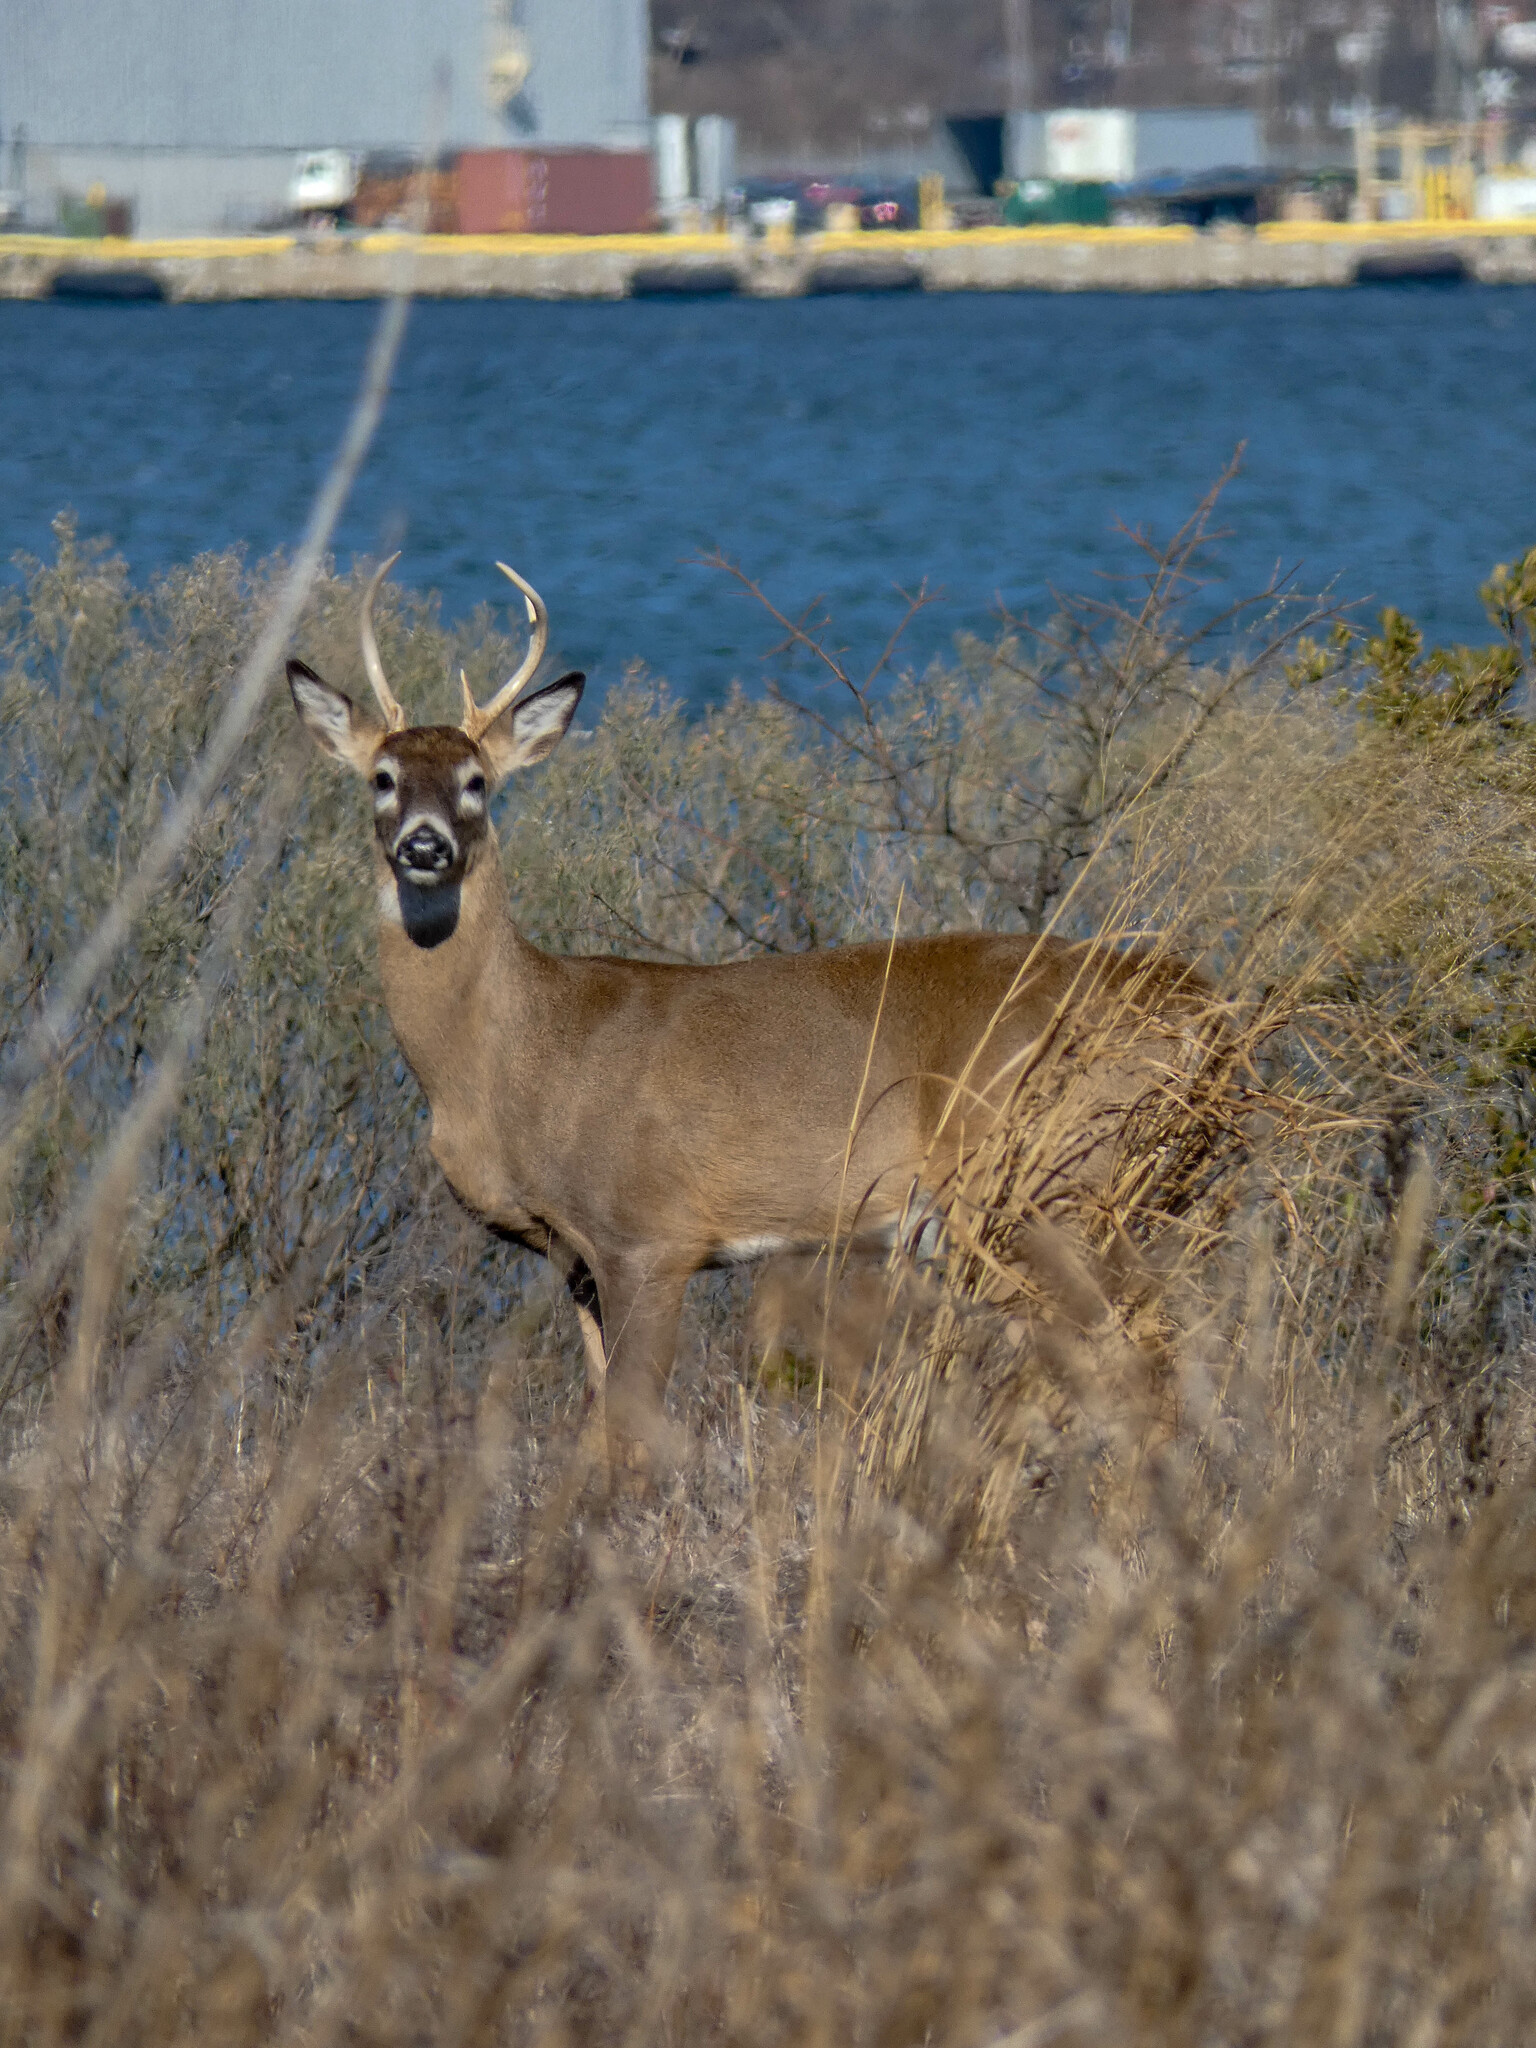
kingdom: Animalia
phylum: Chordata
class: Mammalia
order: Artiodactyla
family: Cervidae
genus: Odocoileus
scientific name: Odocoileus virginianus
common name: White-tailed deer
